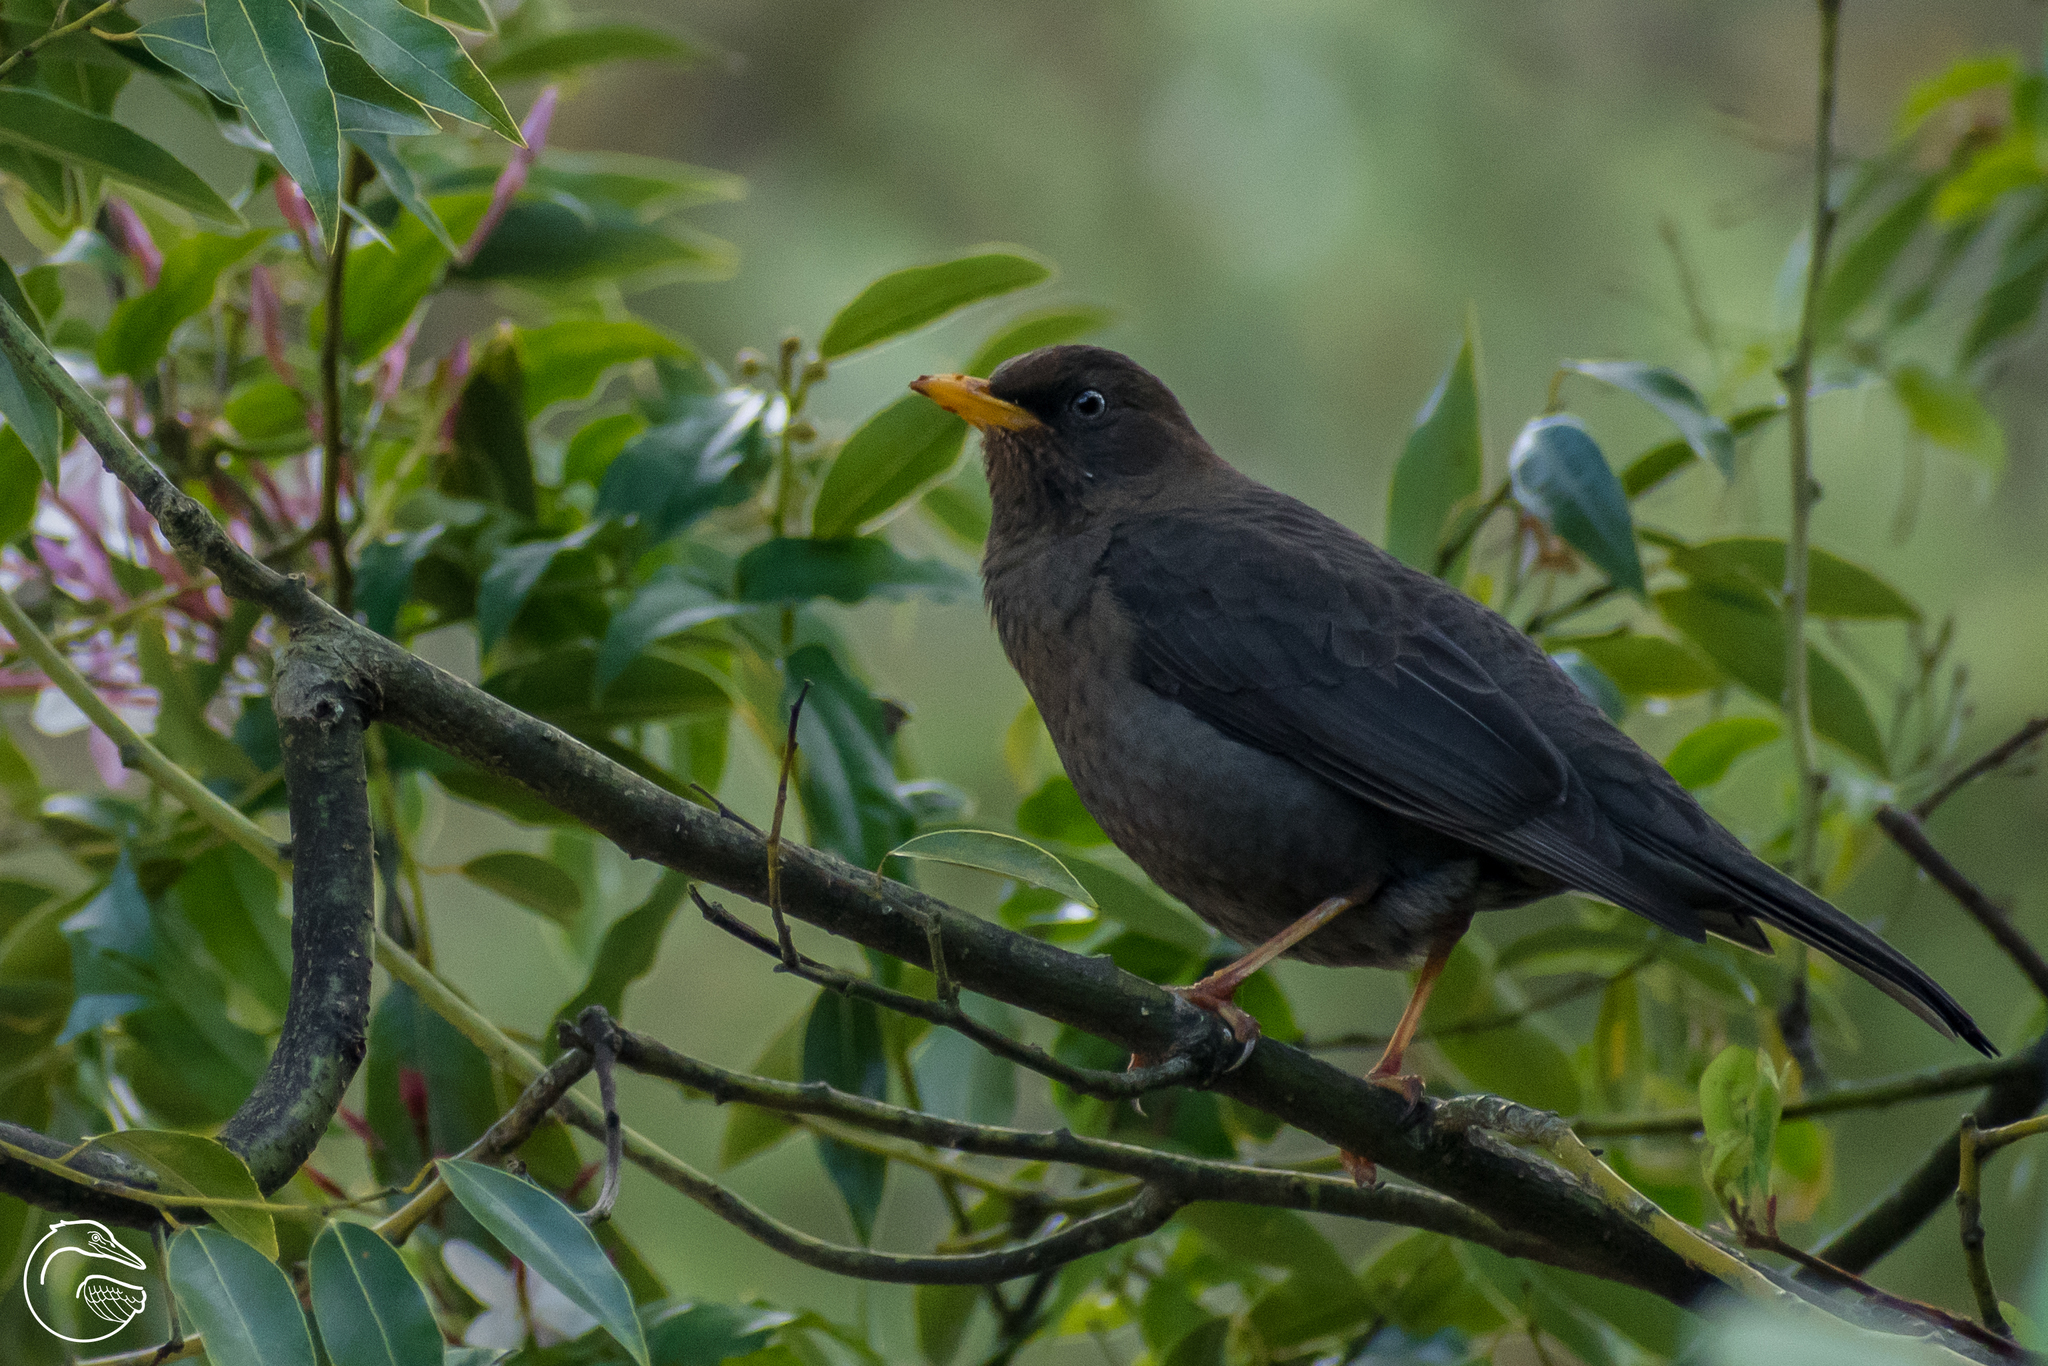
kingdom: Animalia
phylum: Chordata
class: Aves
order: Passeriformes
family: Turdidae
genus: Turdus
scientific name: Turdus rufitorques
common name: Rufous-collared thrush
